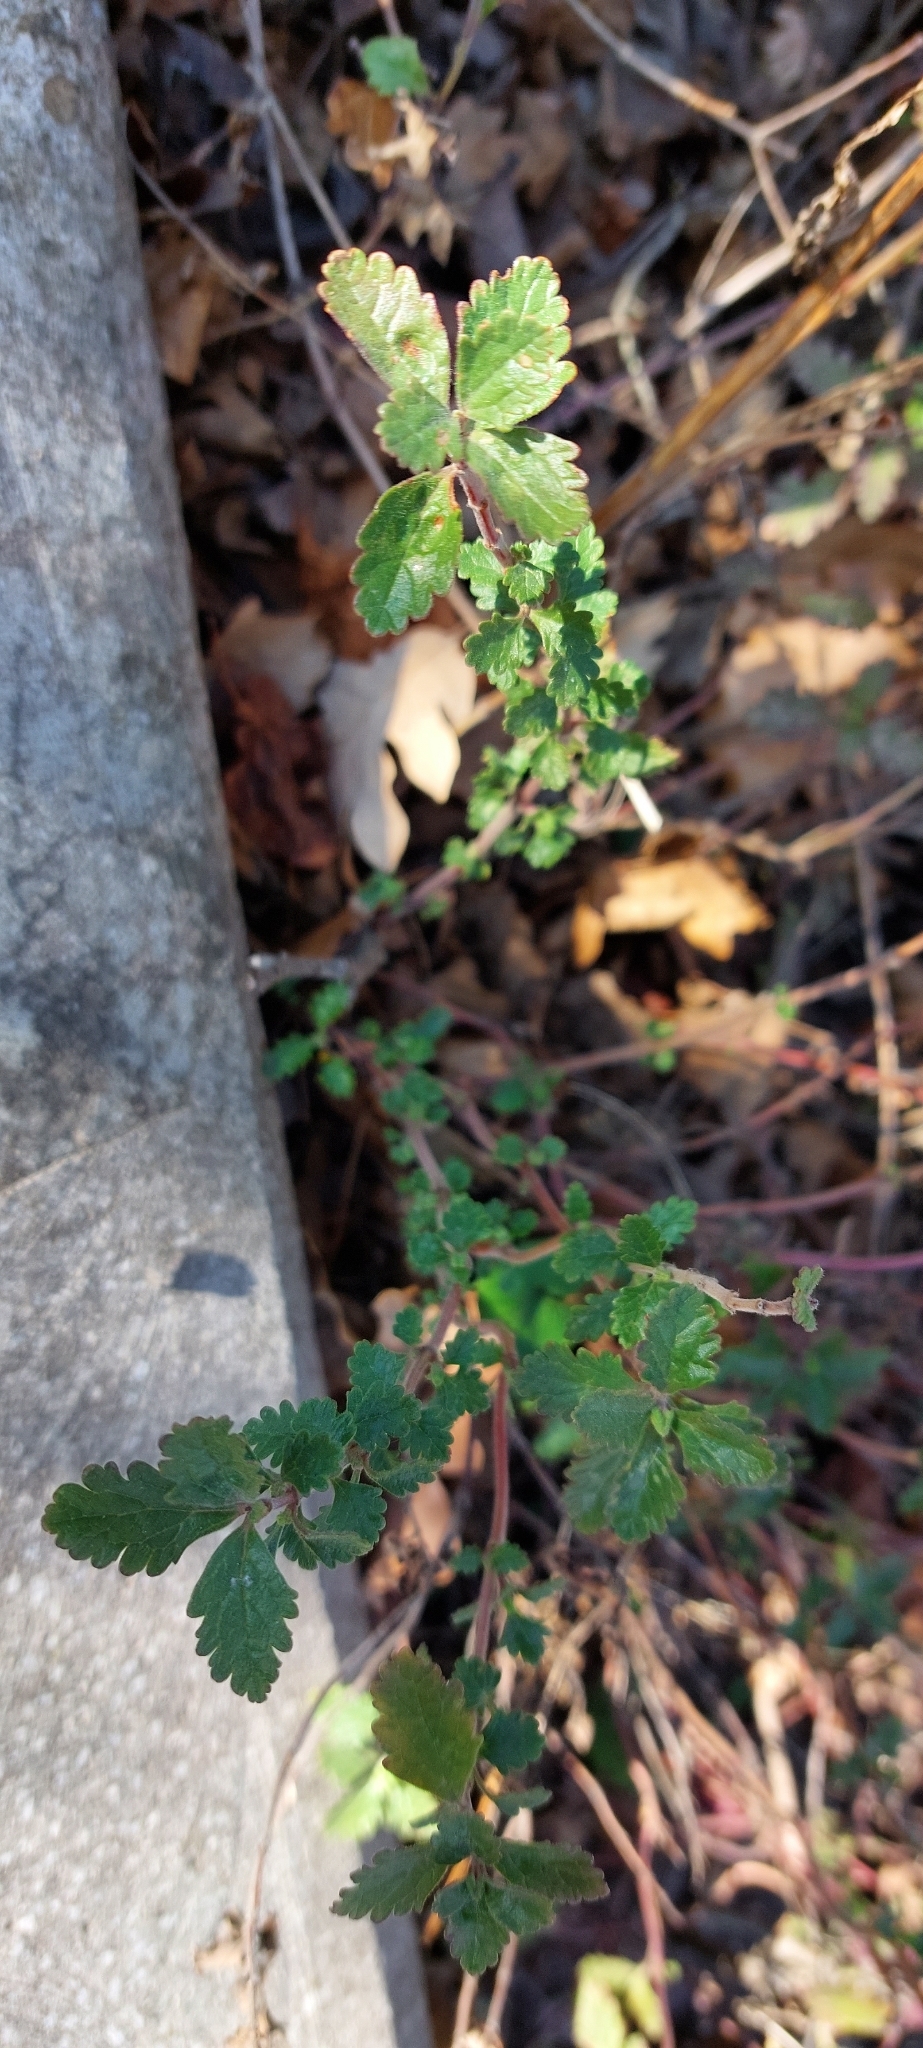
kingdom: Plantae
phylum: Tracheophyta
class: Magnoliopsida
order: Lamiales
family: Lamiaceae
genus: Teucrium
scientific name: Teucrium chamaedrys
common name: Wall germander
